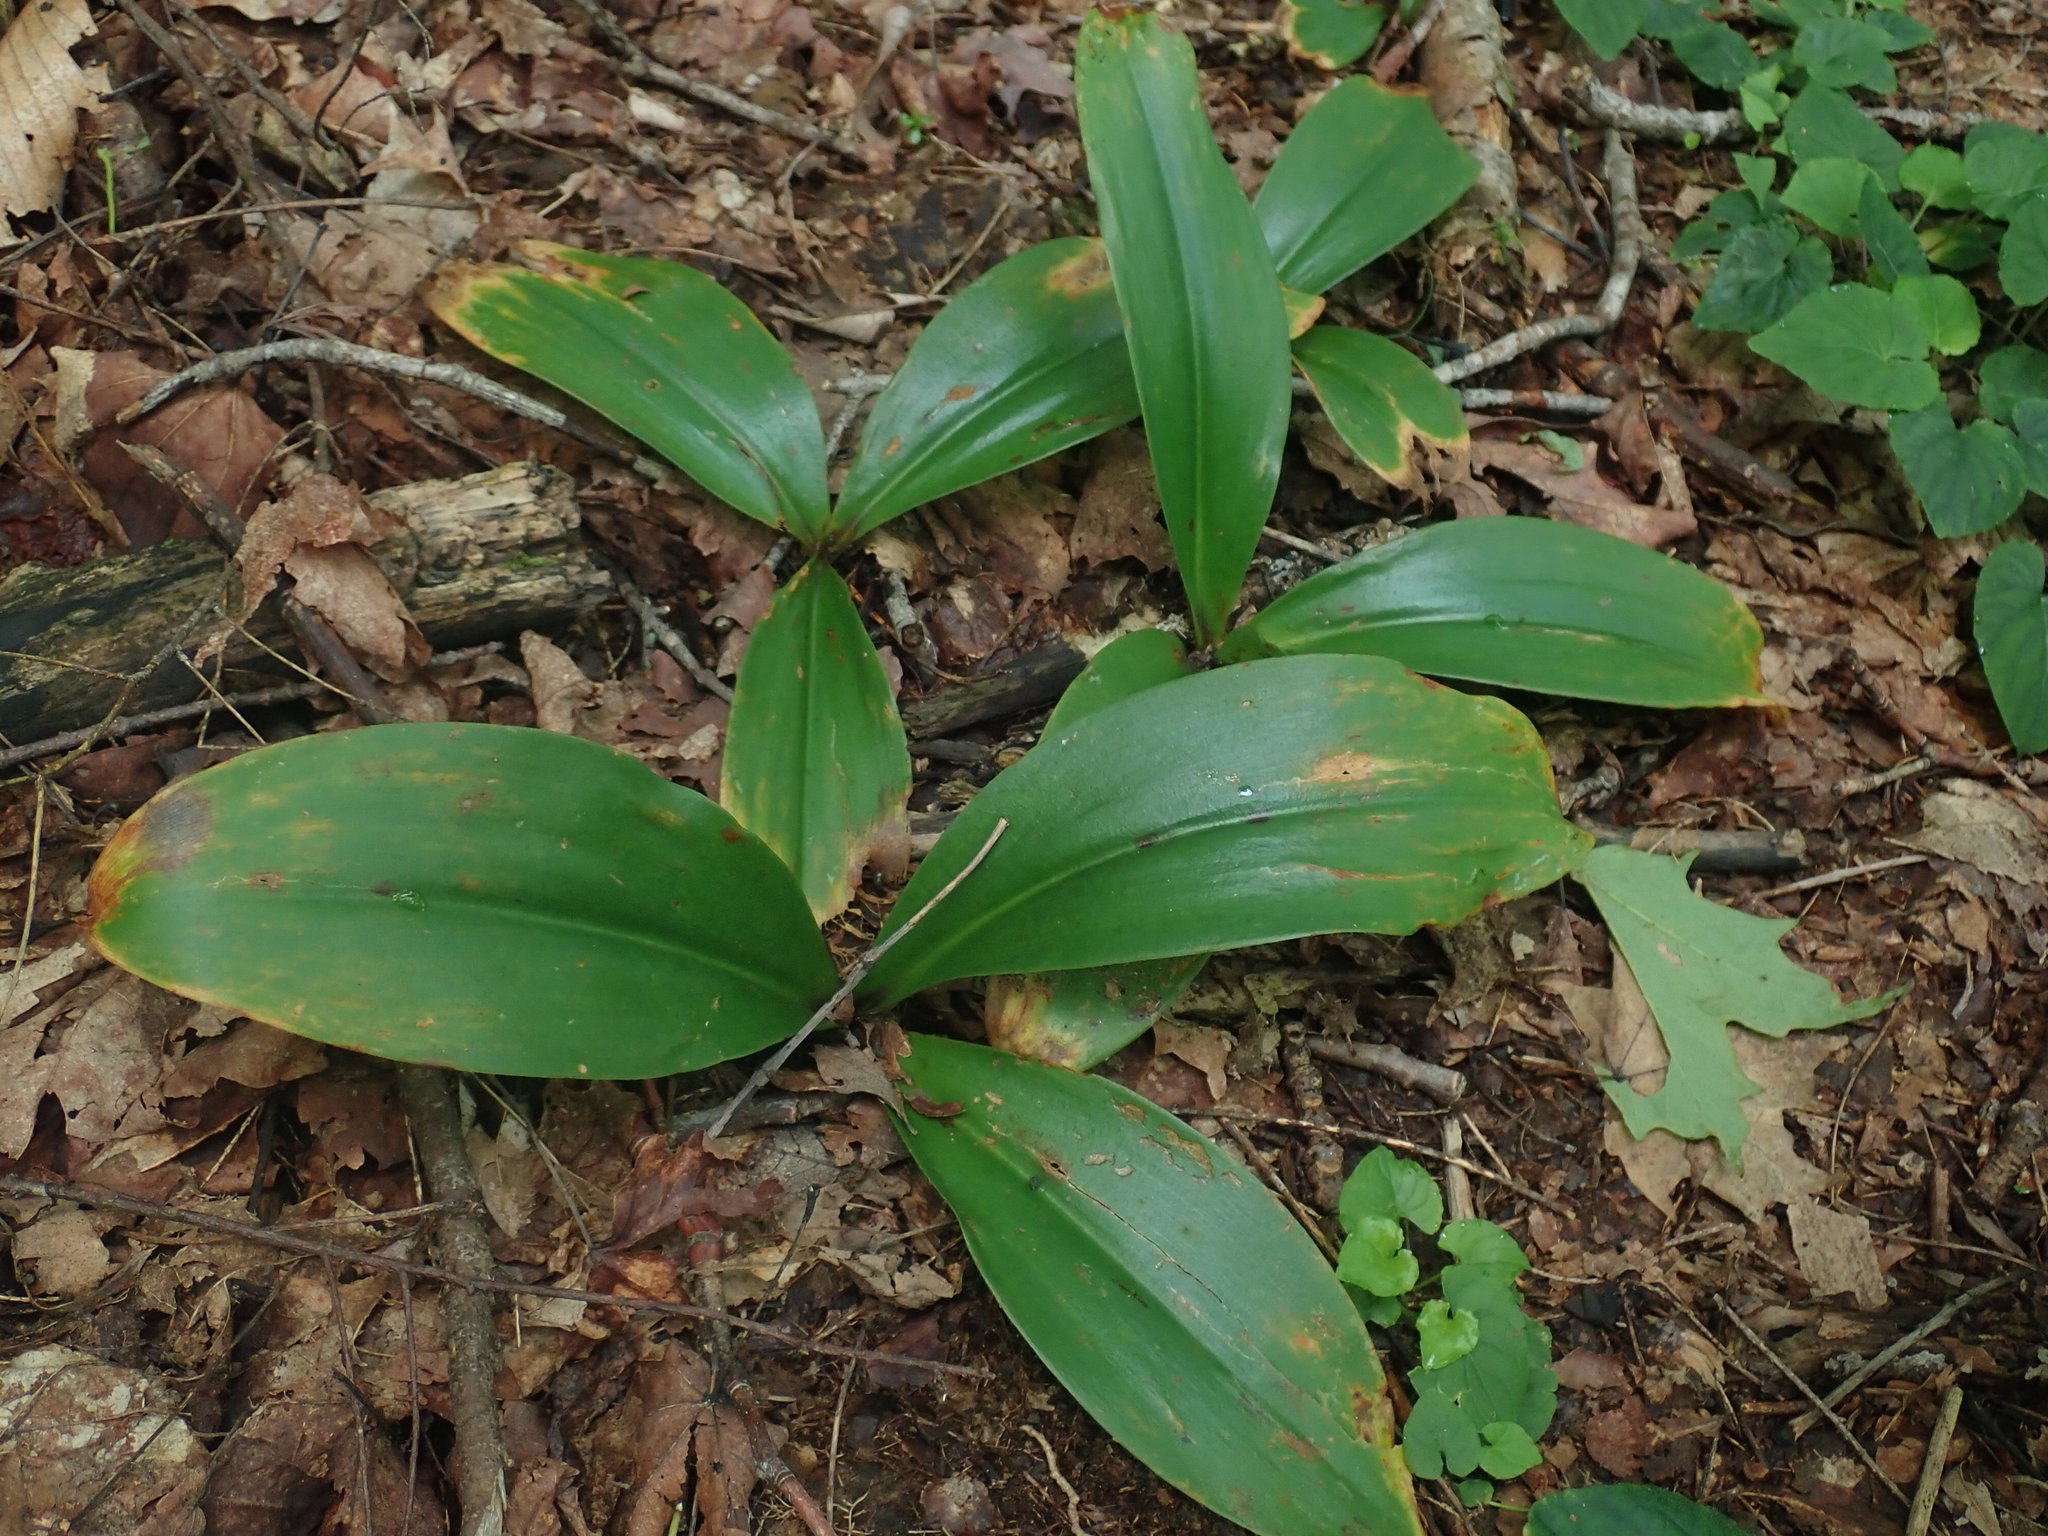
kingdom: Plantae
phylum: Tracheophyta
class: Liliopsida
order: Liliales
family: Liliaceae
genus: Clintonia
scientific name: Clintonia borealis
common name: Yellow clintonia
